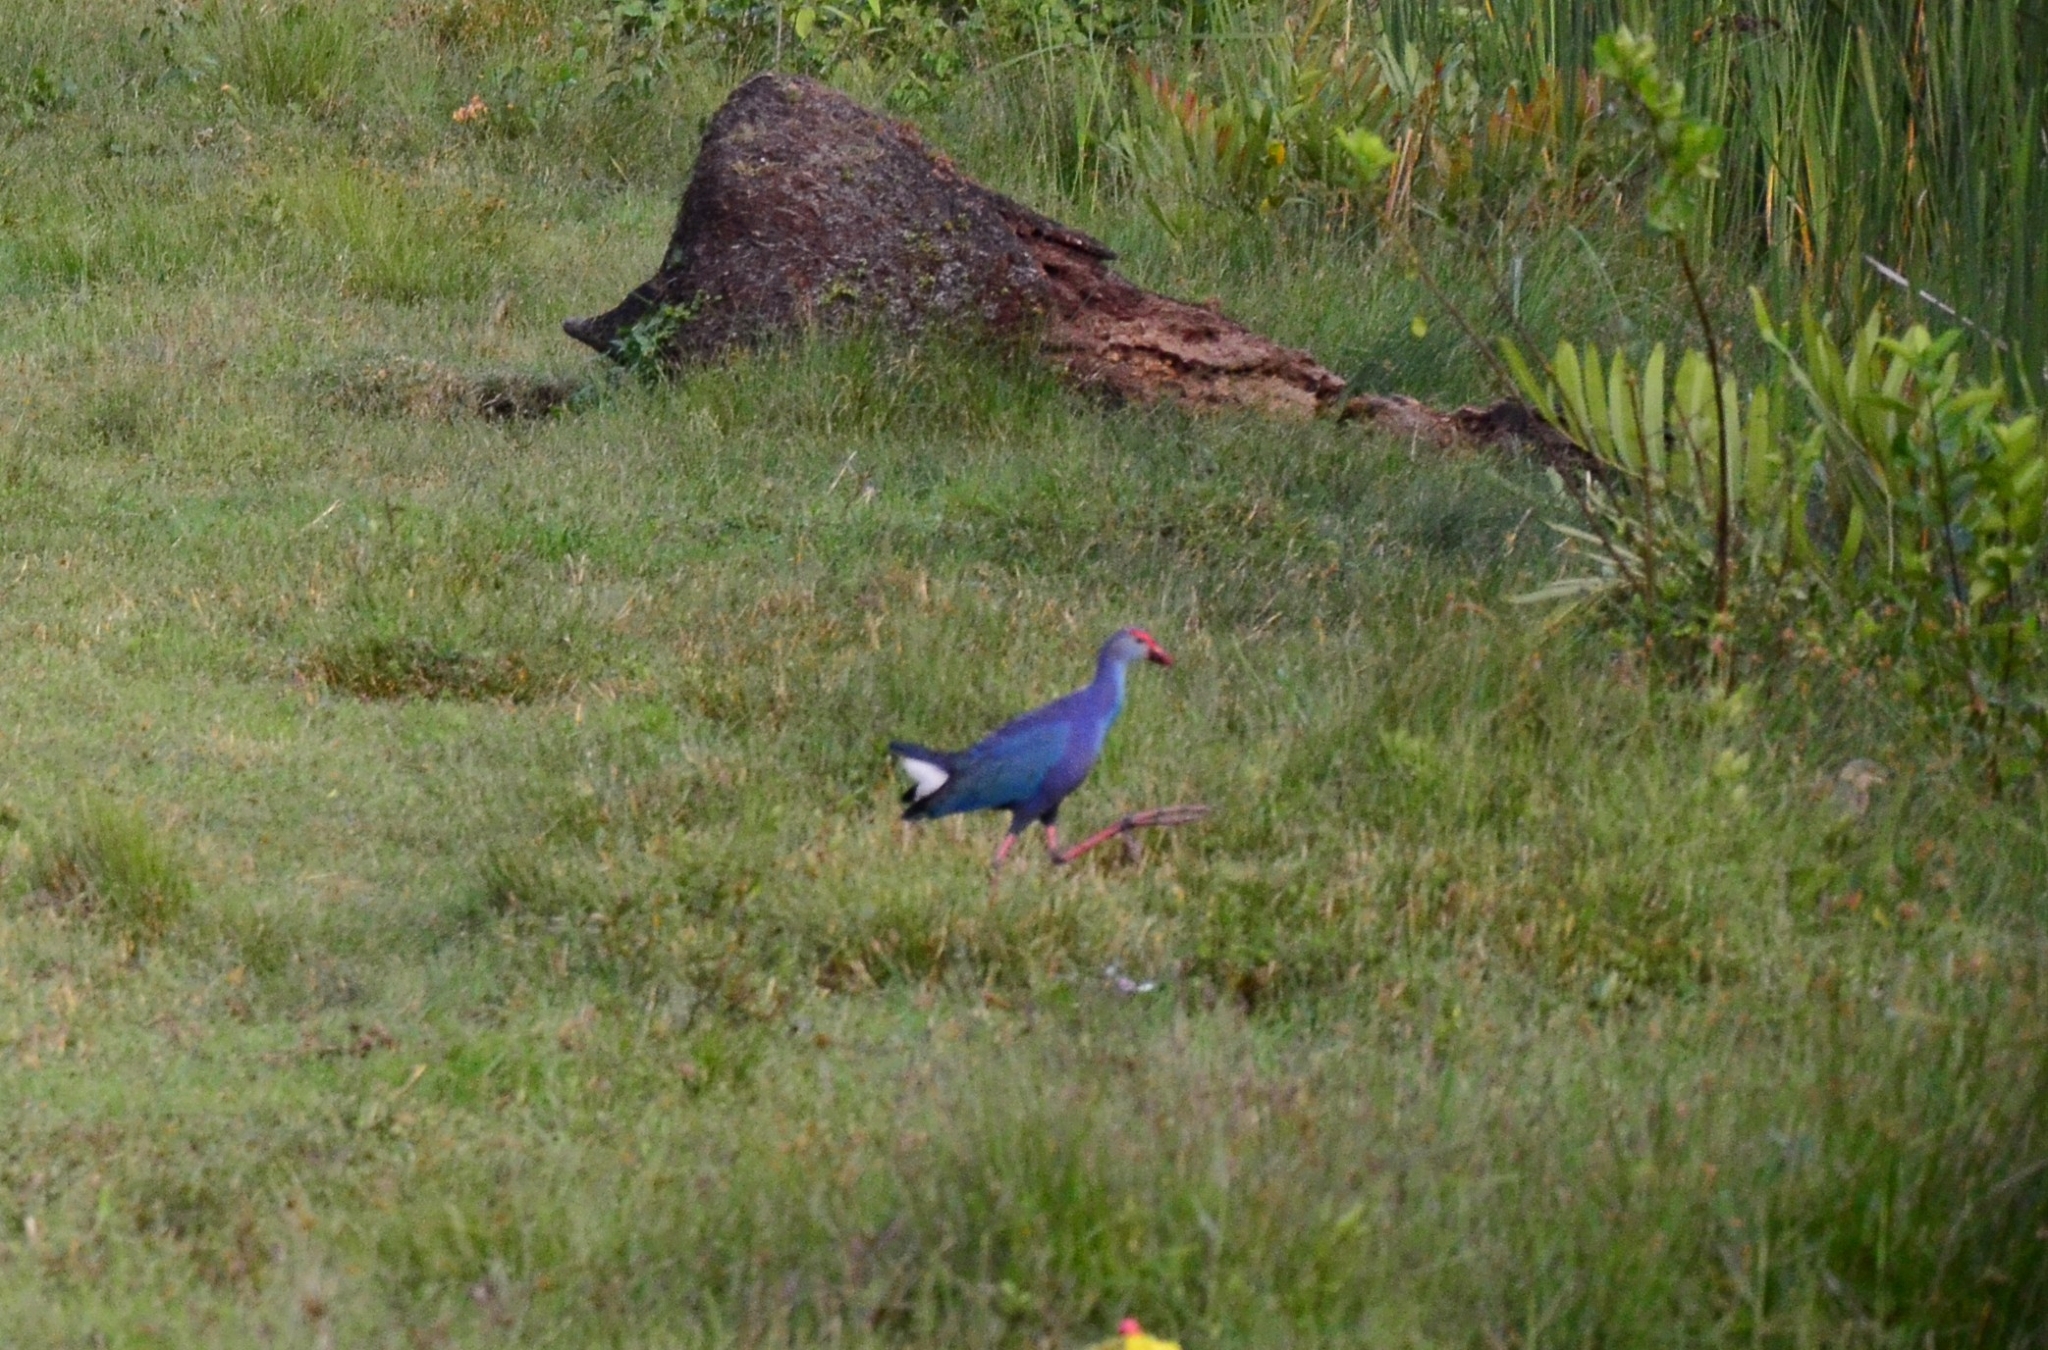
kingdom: Animalia
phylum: Chordata
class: Aves
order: Gruiformes
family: Rallidae
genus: Porphyrio
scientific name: Porphyrio porphyrio
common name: Purple swamphen
